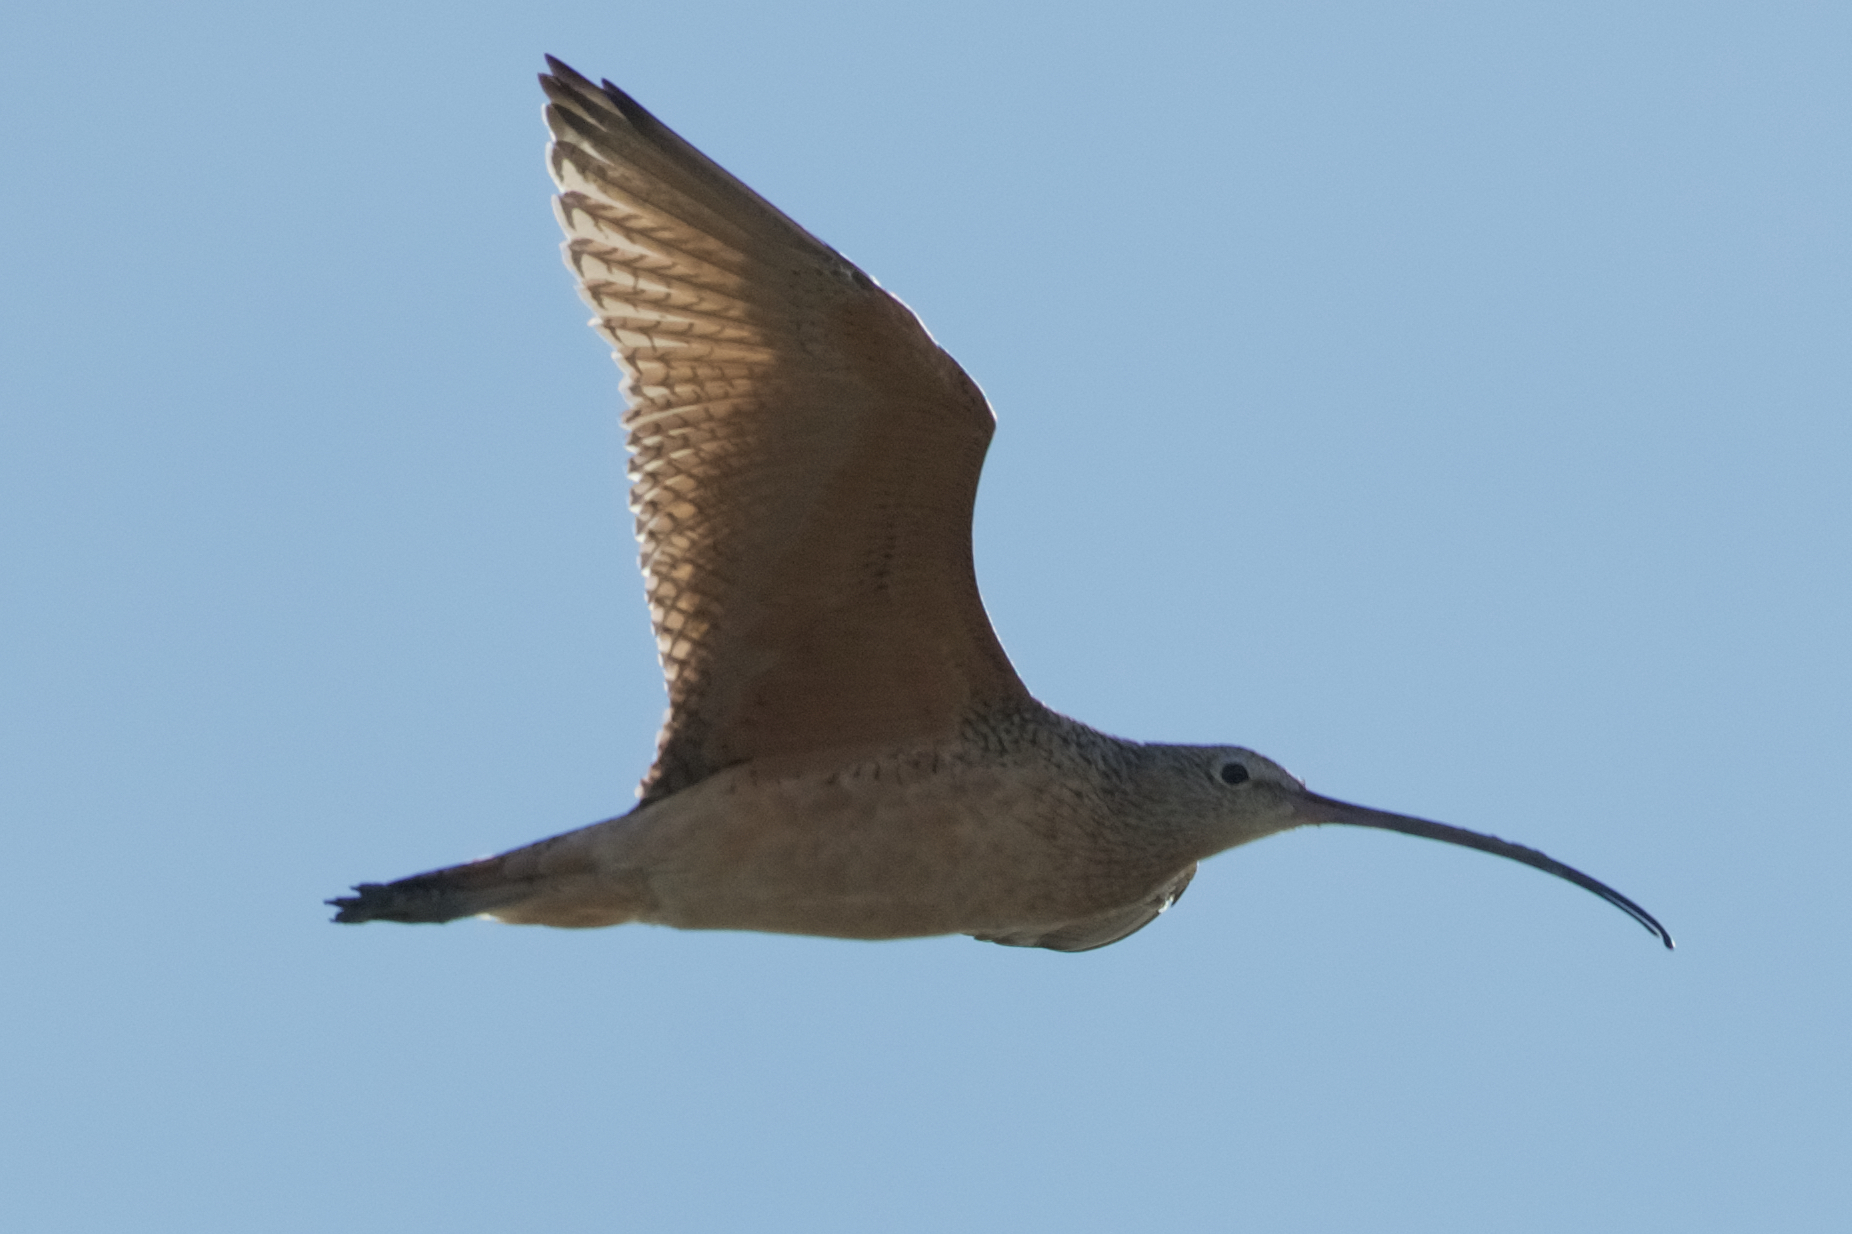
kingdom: Animalia
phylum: Chordata
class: Aves
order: Charadriiformes
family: Scolopacidae
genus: Numenius
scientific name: Numenius americanus
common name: Long-billed curlew
